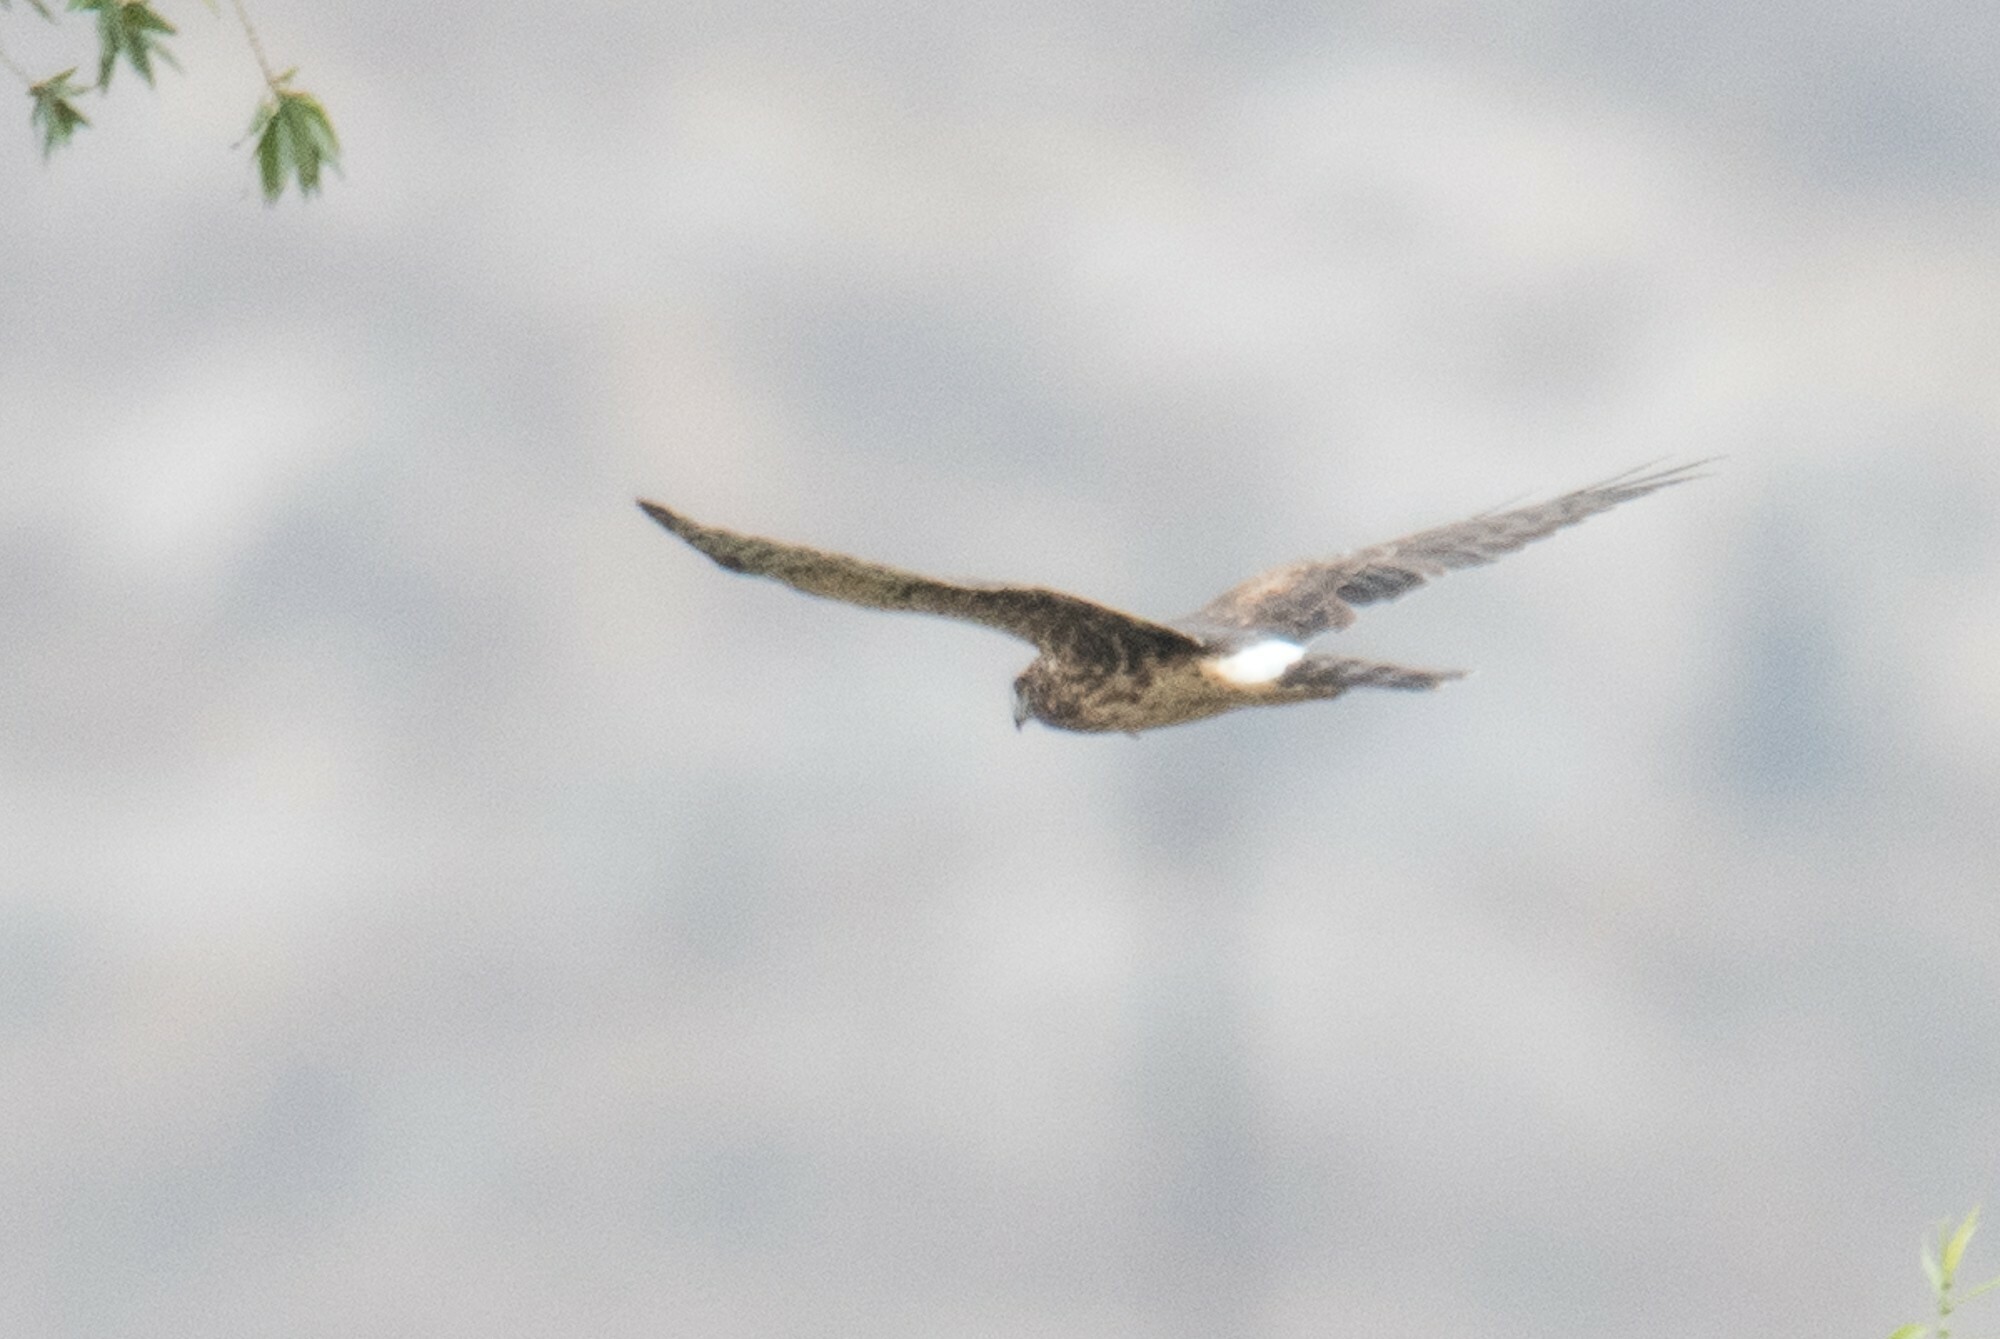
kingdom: Animalia
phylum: Chordata
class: Aves
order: Accipitriformes
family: Accipitridae
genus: Circus
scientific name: Circus cyaneus
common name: Hen harrier
